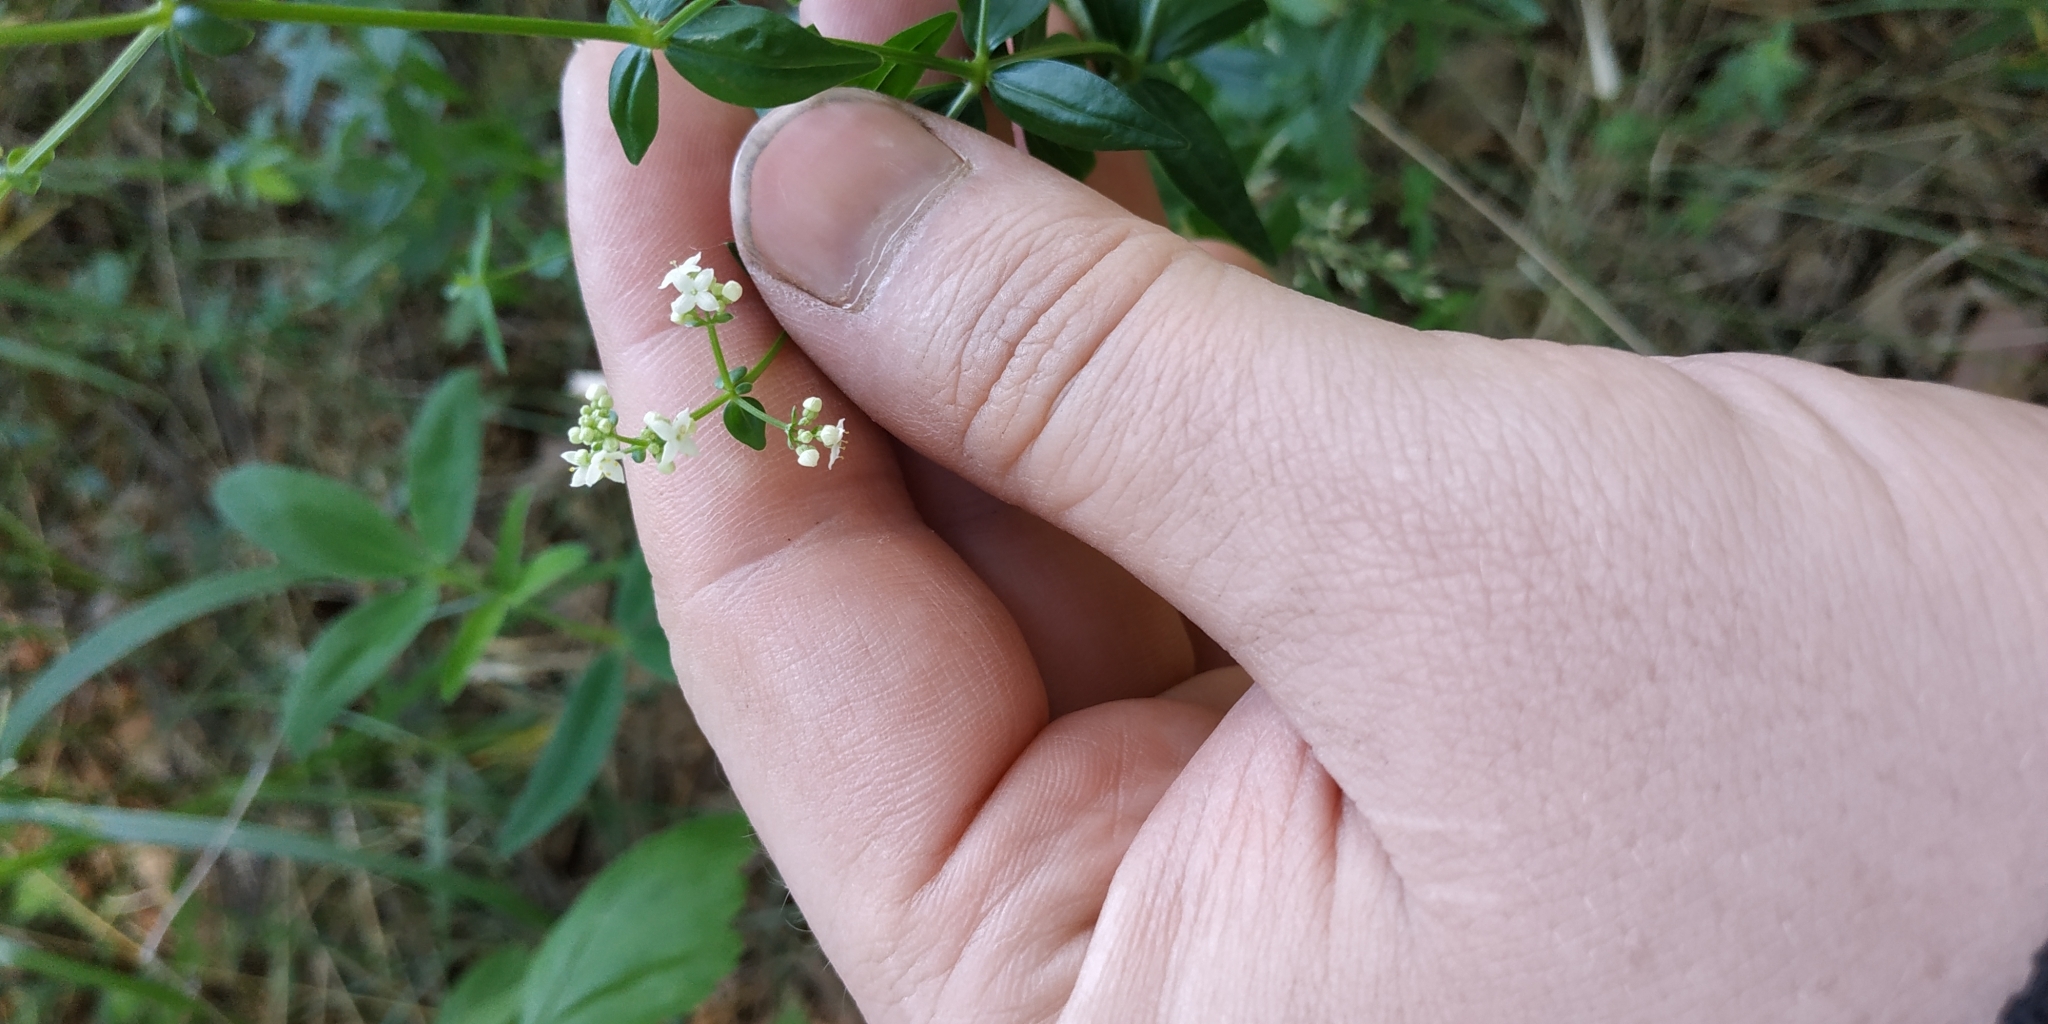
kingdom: Plantae
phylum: Tracheophyta
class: Magnoliopsida
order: Gentianales
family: Rubiaceae
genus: Galium
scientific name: Galium boreale
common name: Northern bedstraw
